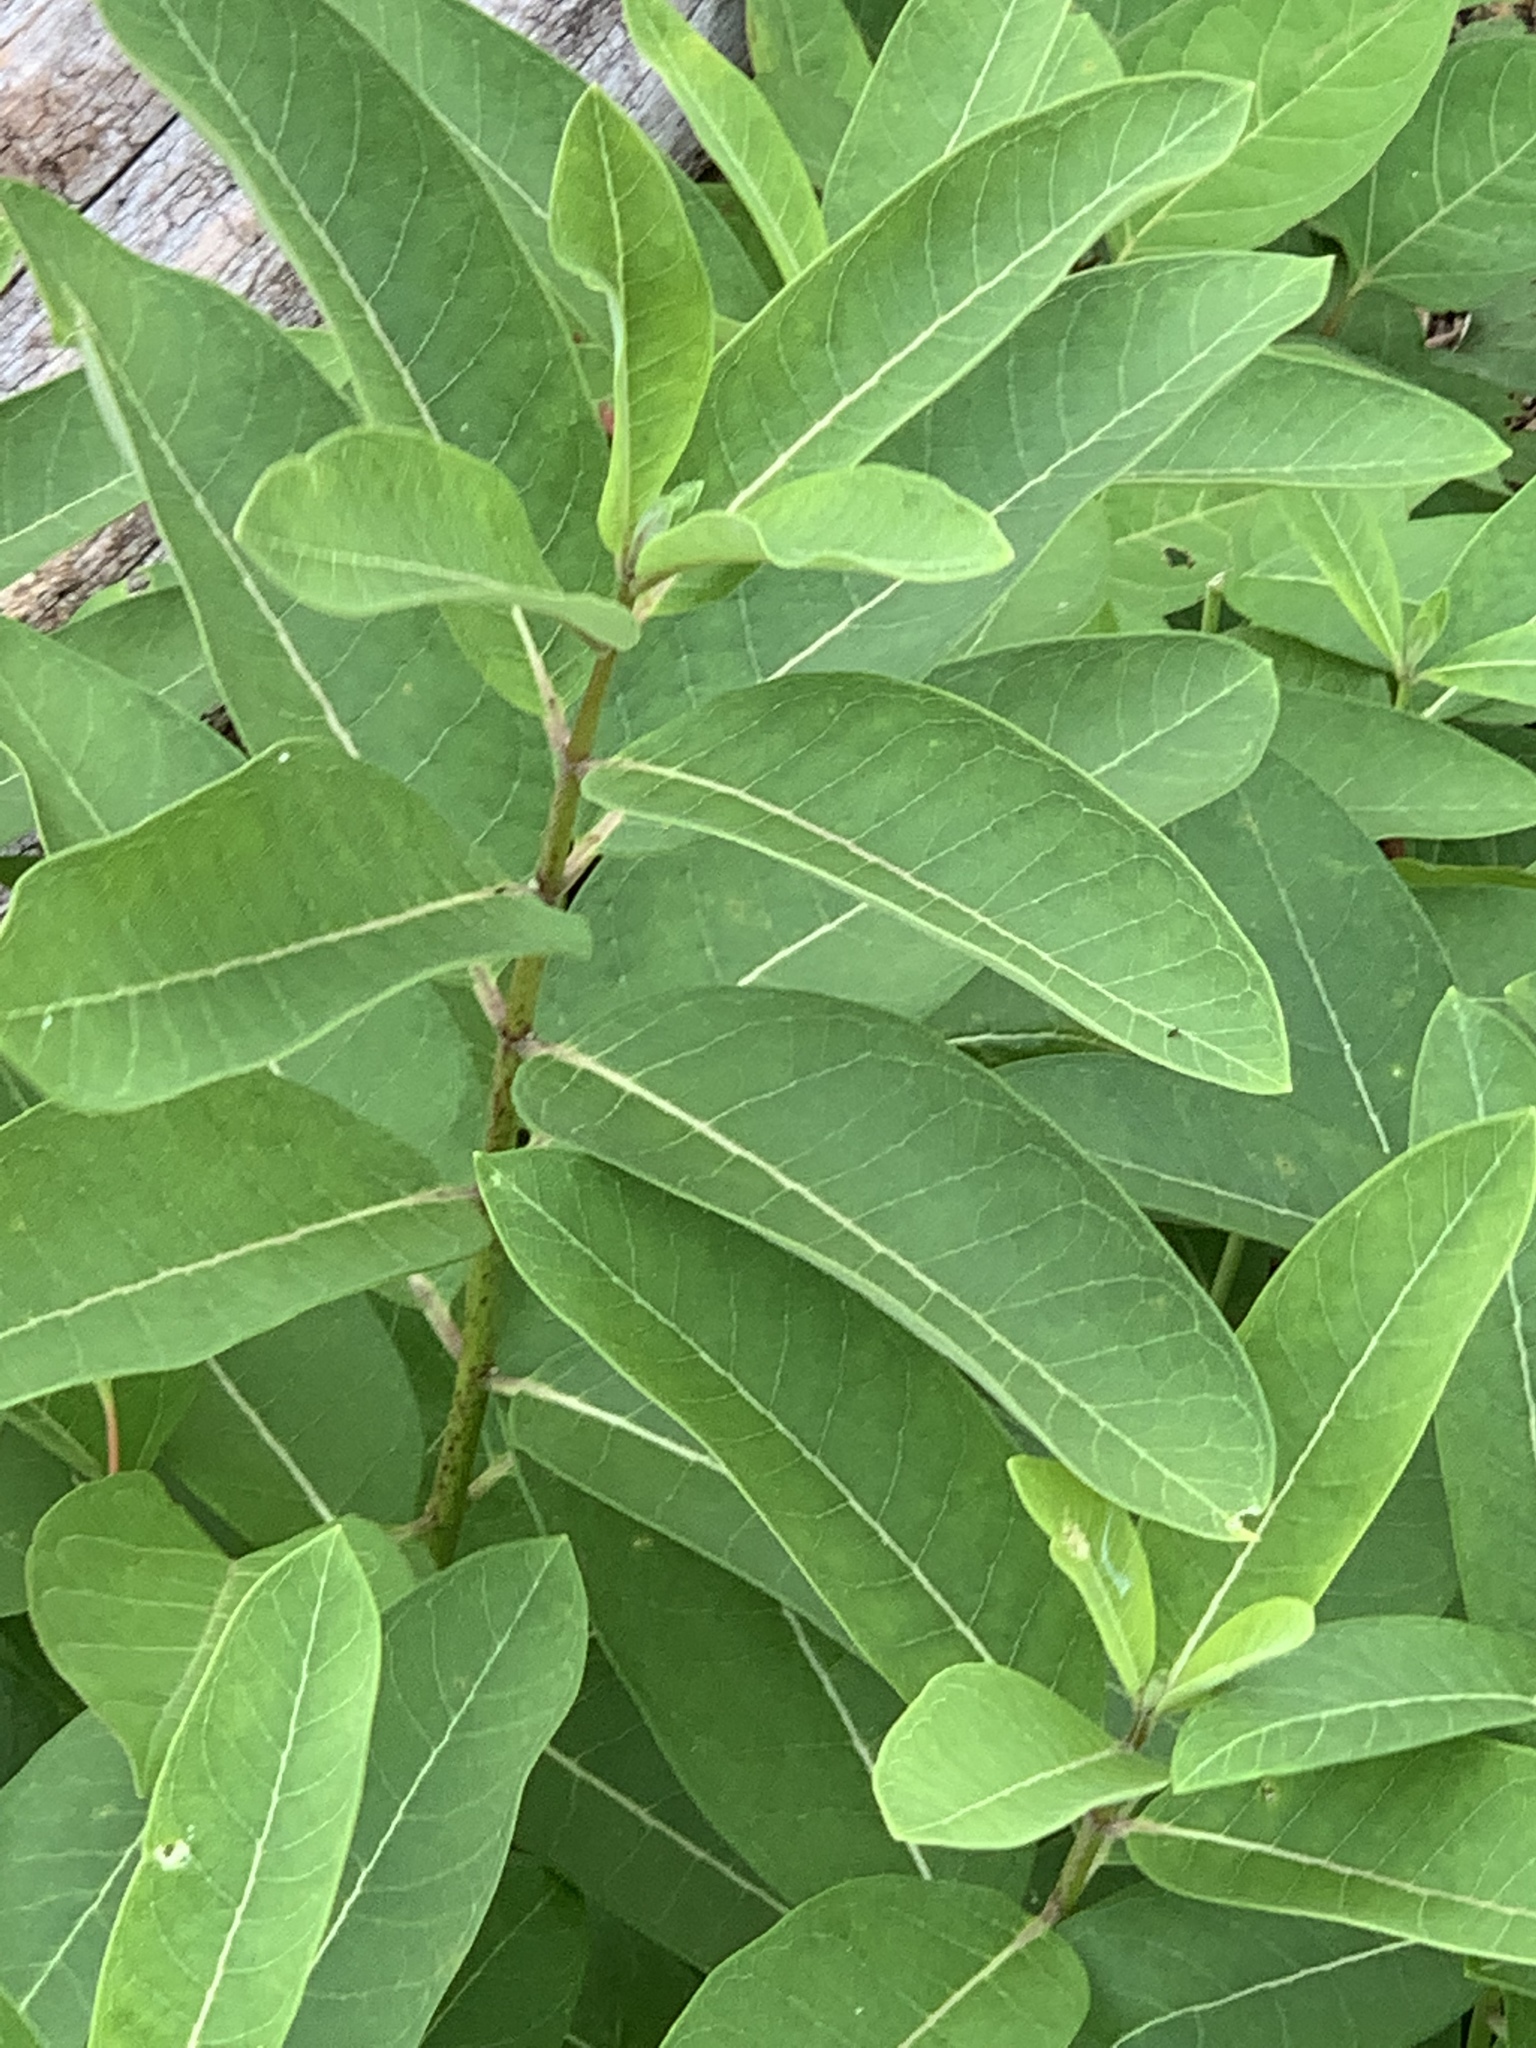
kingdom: Plantae
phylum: Tracheophyta
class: Magnoliopsida
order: Gentianales
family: Apocynaceae
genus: Asclepias
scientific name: Asclepias syriaca
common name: Common milkweed
